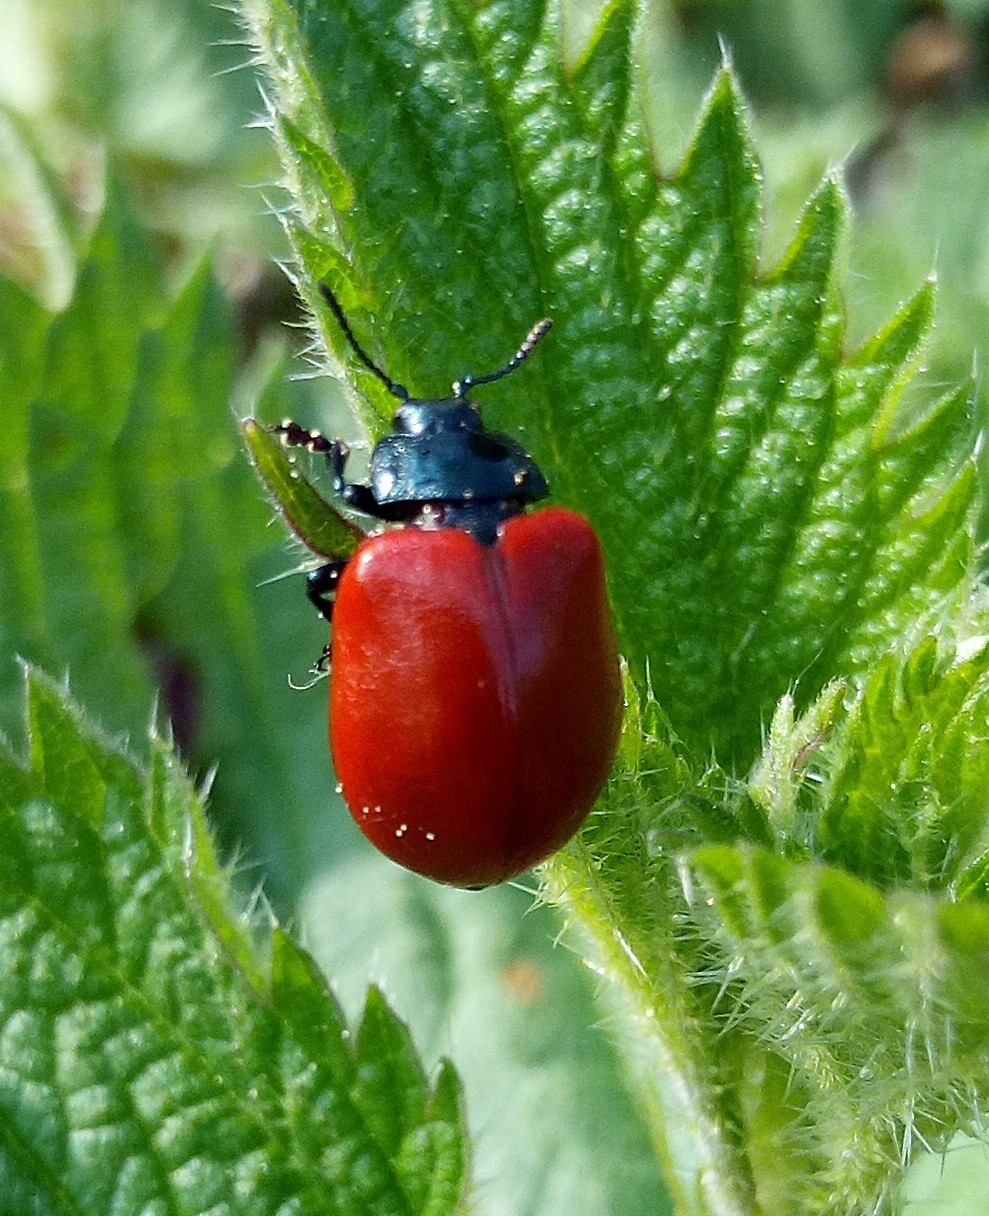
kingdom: Animalia
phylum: Arthropoda
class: Insecta
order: Coleoptera
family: Chrysomelidae
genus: Chrysomela
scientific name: Chrysomela populi
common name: Red poplar leaf beetle
